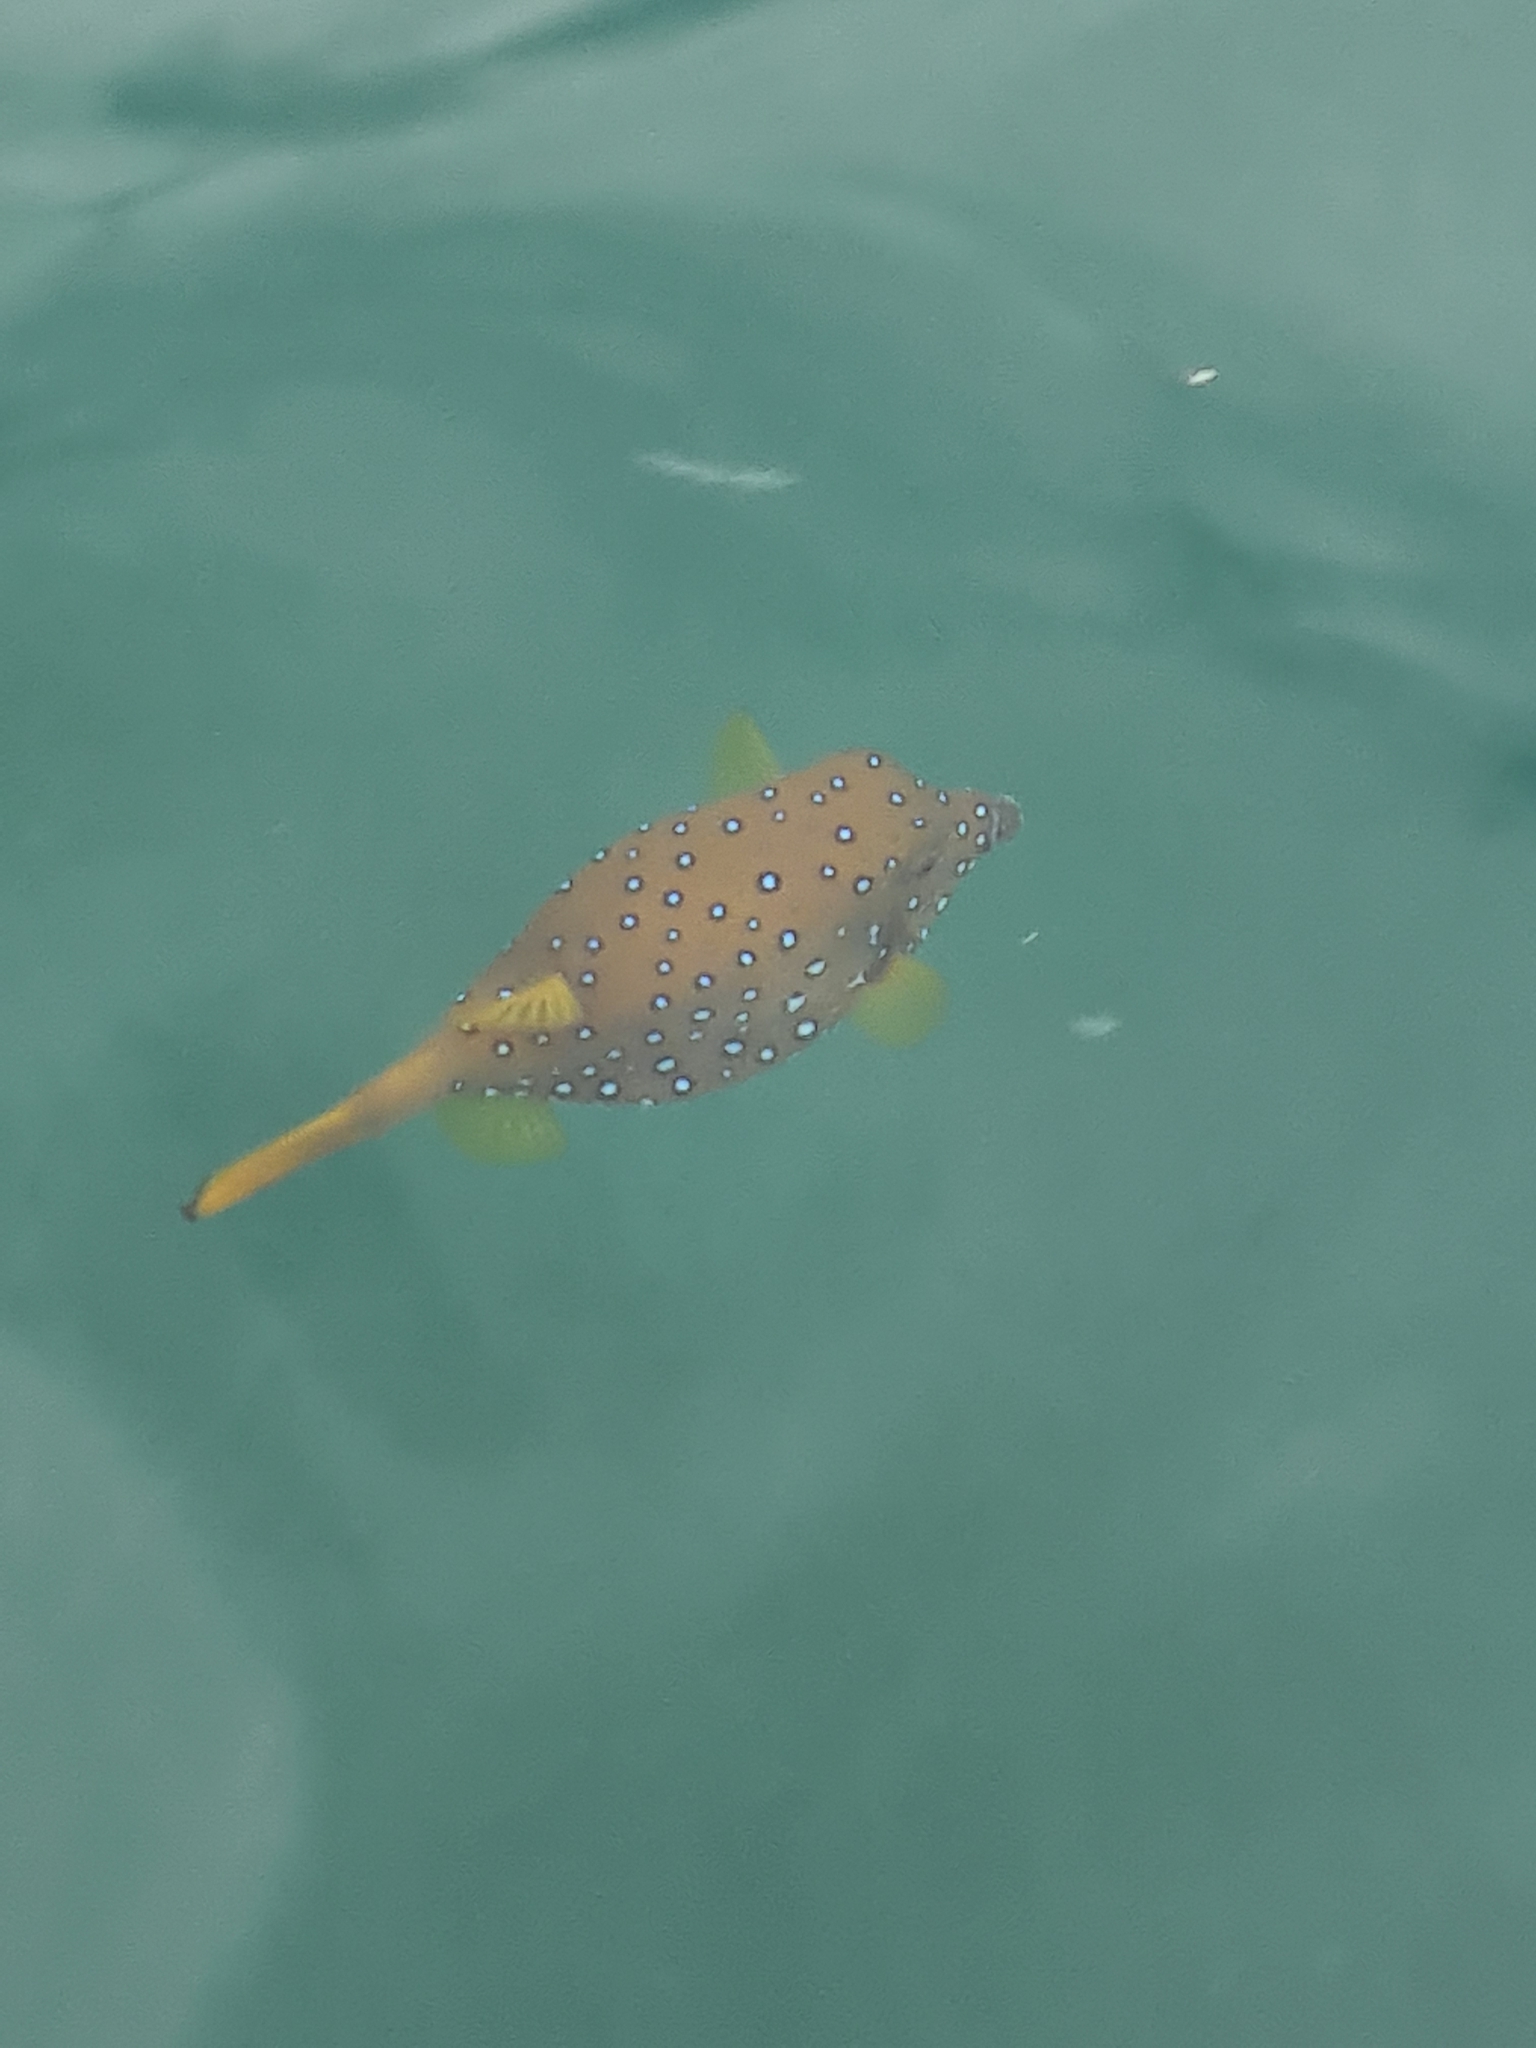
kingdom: Animalia
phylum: Chordata
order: Tetraodontiformes
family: Ostraciidae
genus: Ostracion
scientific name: Ostracion cubicus
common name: Cube trunkfish
